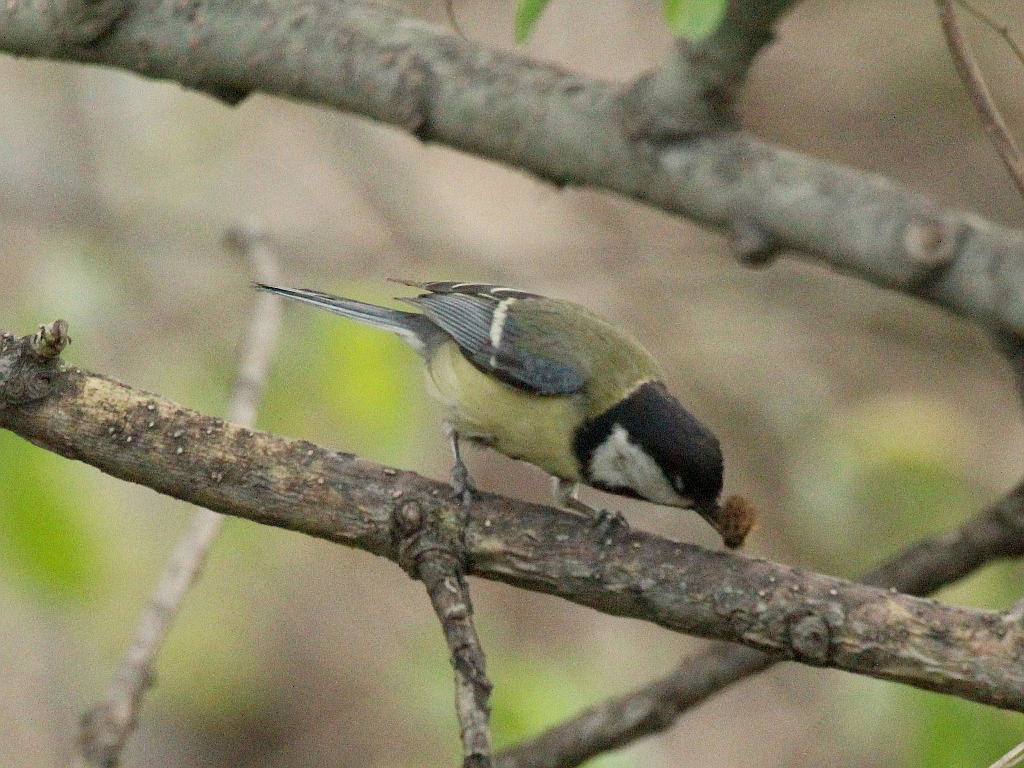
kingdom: Animalia
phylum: Chordata
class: Aves
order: Passeriformes
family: Paridae
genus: Parus
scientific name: Parus major
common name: Great tit
